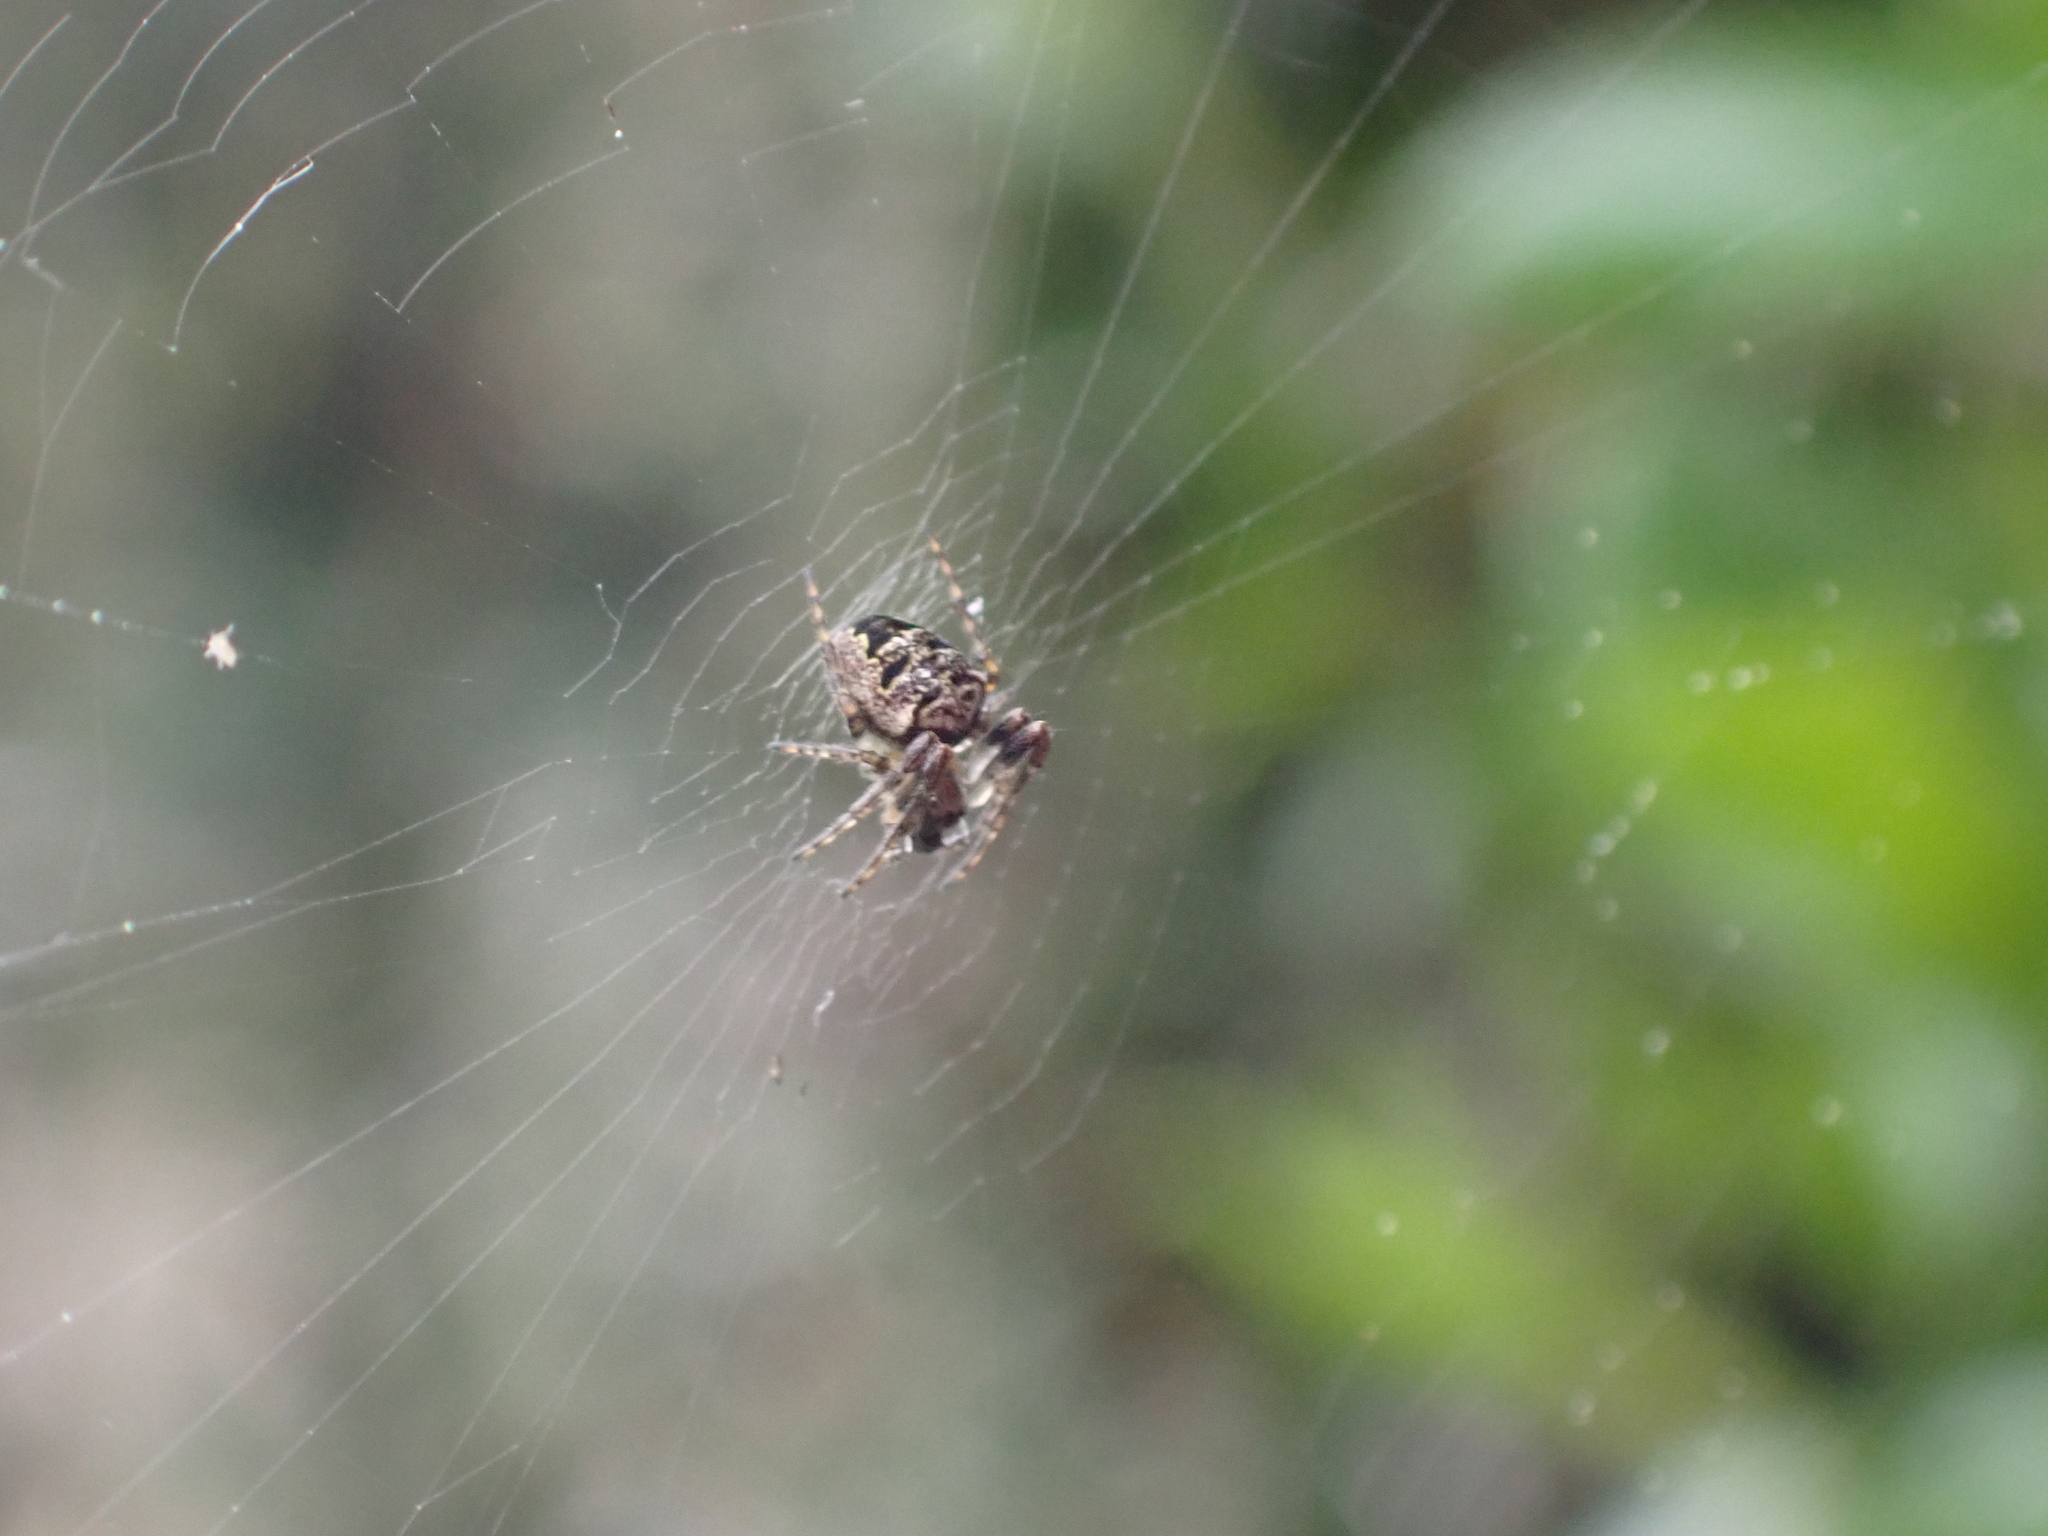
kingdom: Animalia
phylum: Arthropoda
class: Arachnida
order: Araneae
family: Araneidae
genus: Zilla
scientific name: Zilla diodia
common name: Zilla diodia
